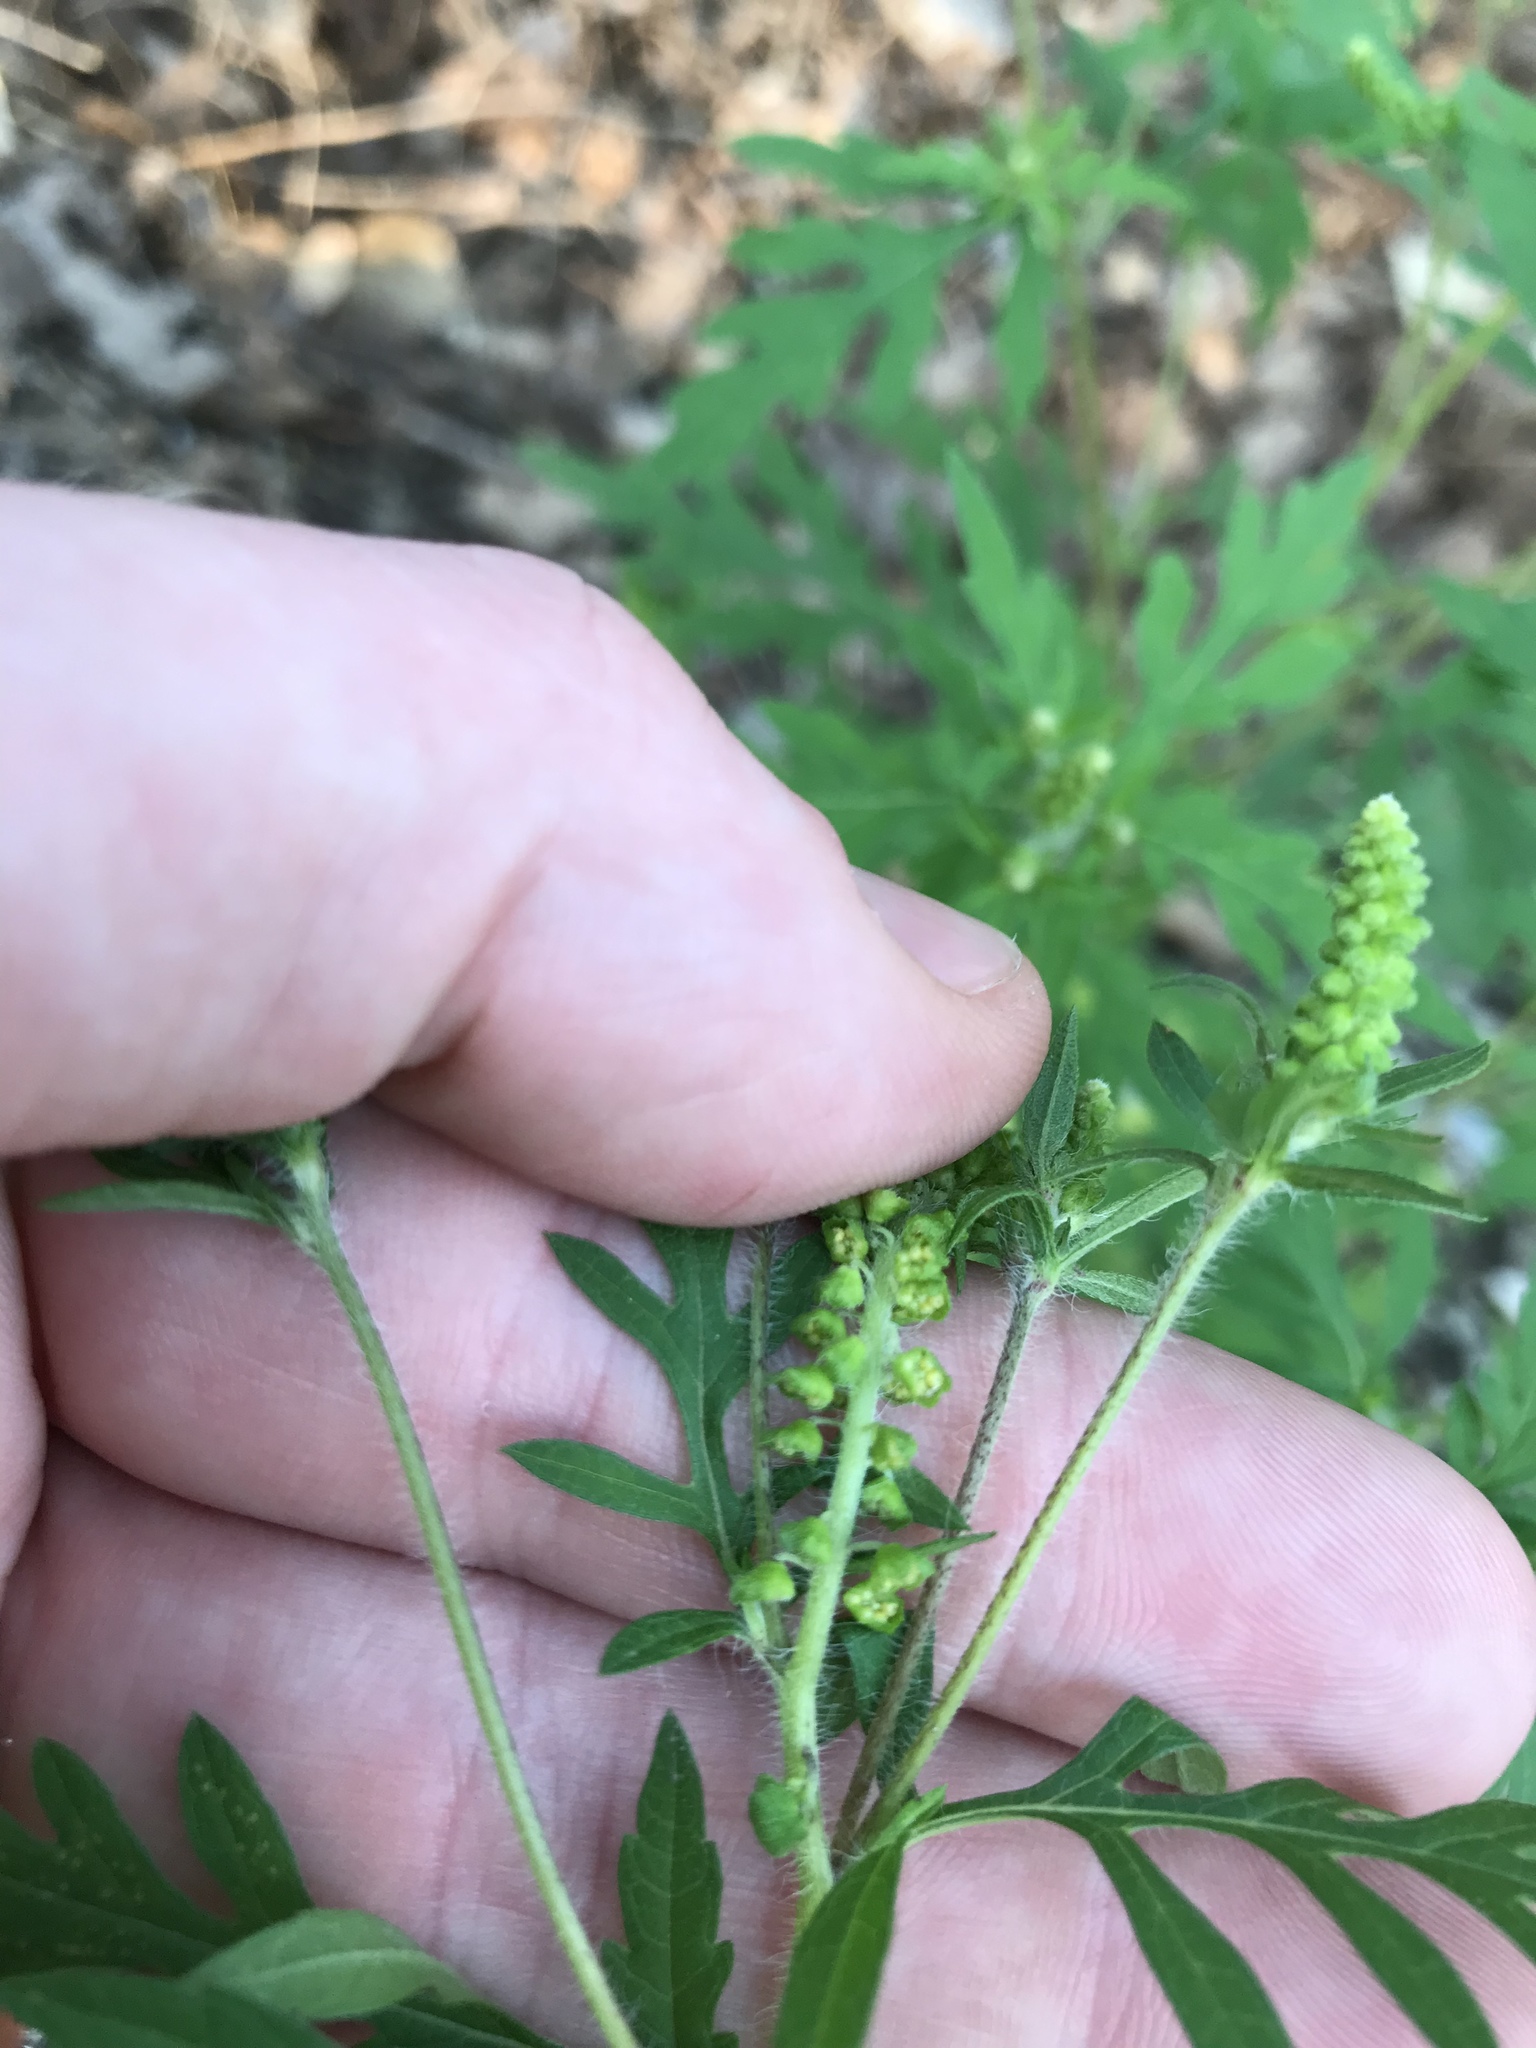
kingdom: Plantae
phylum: Tracheophyta
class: Magnoliopsida
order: Asterales
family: Asteraceae
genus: Ambrosia
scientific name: Ambrosia artemisiifolia
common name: Annual ragweed
